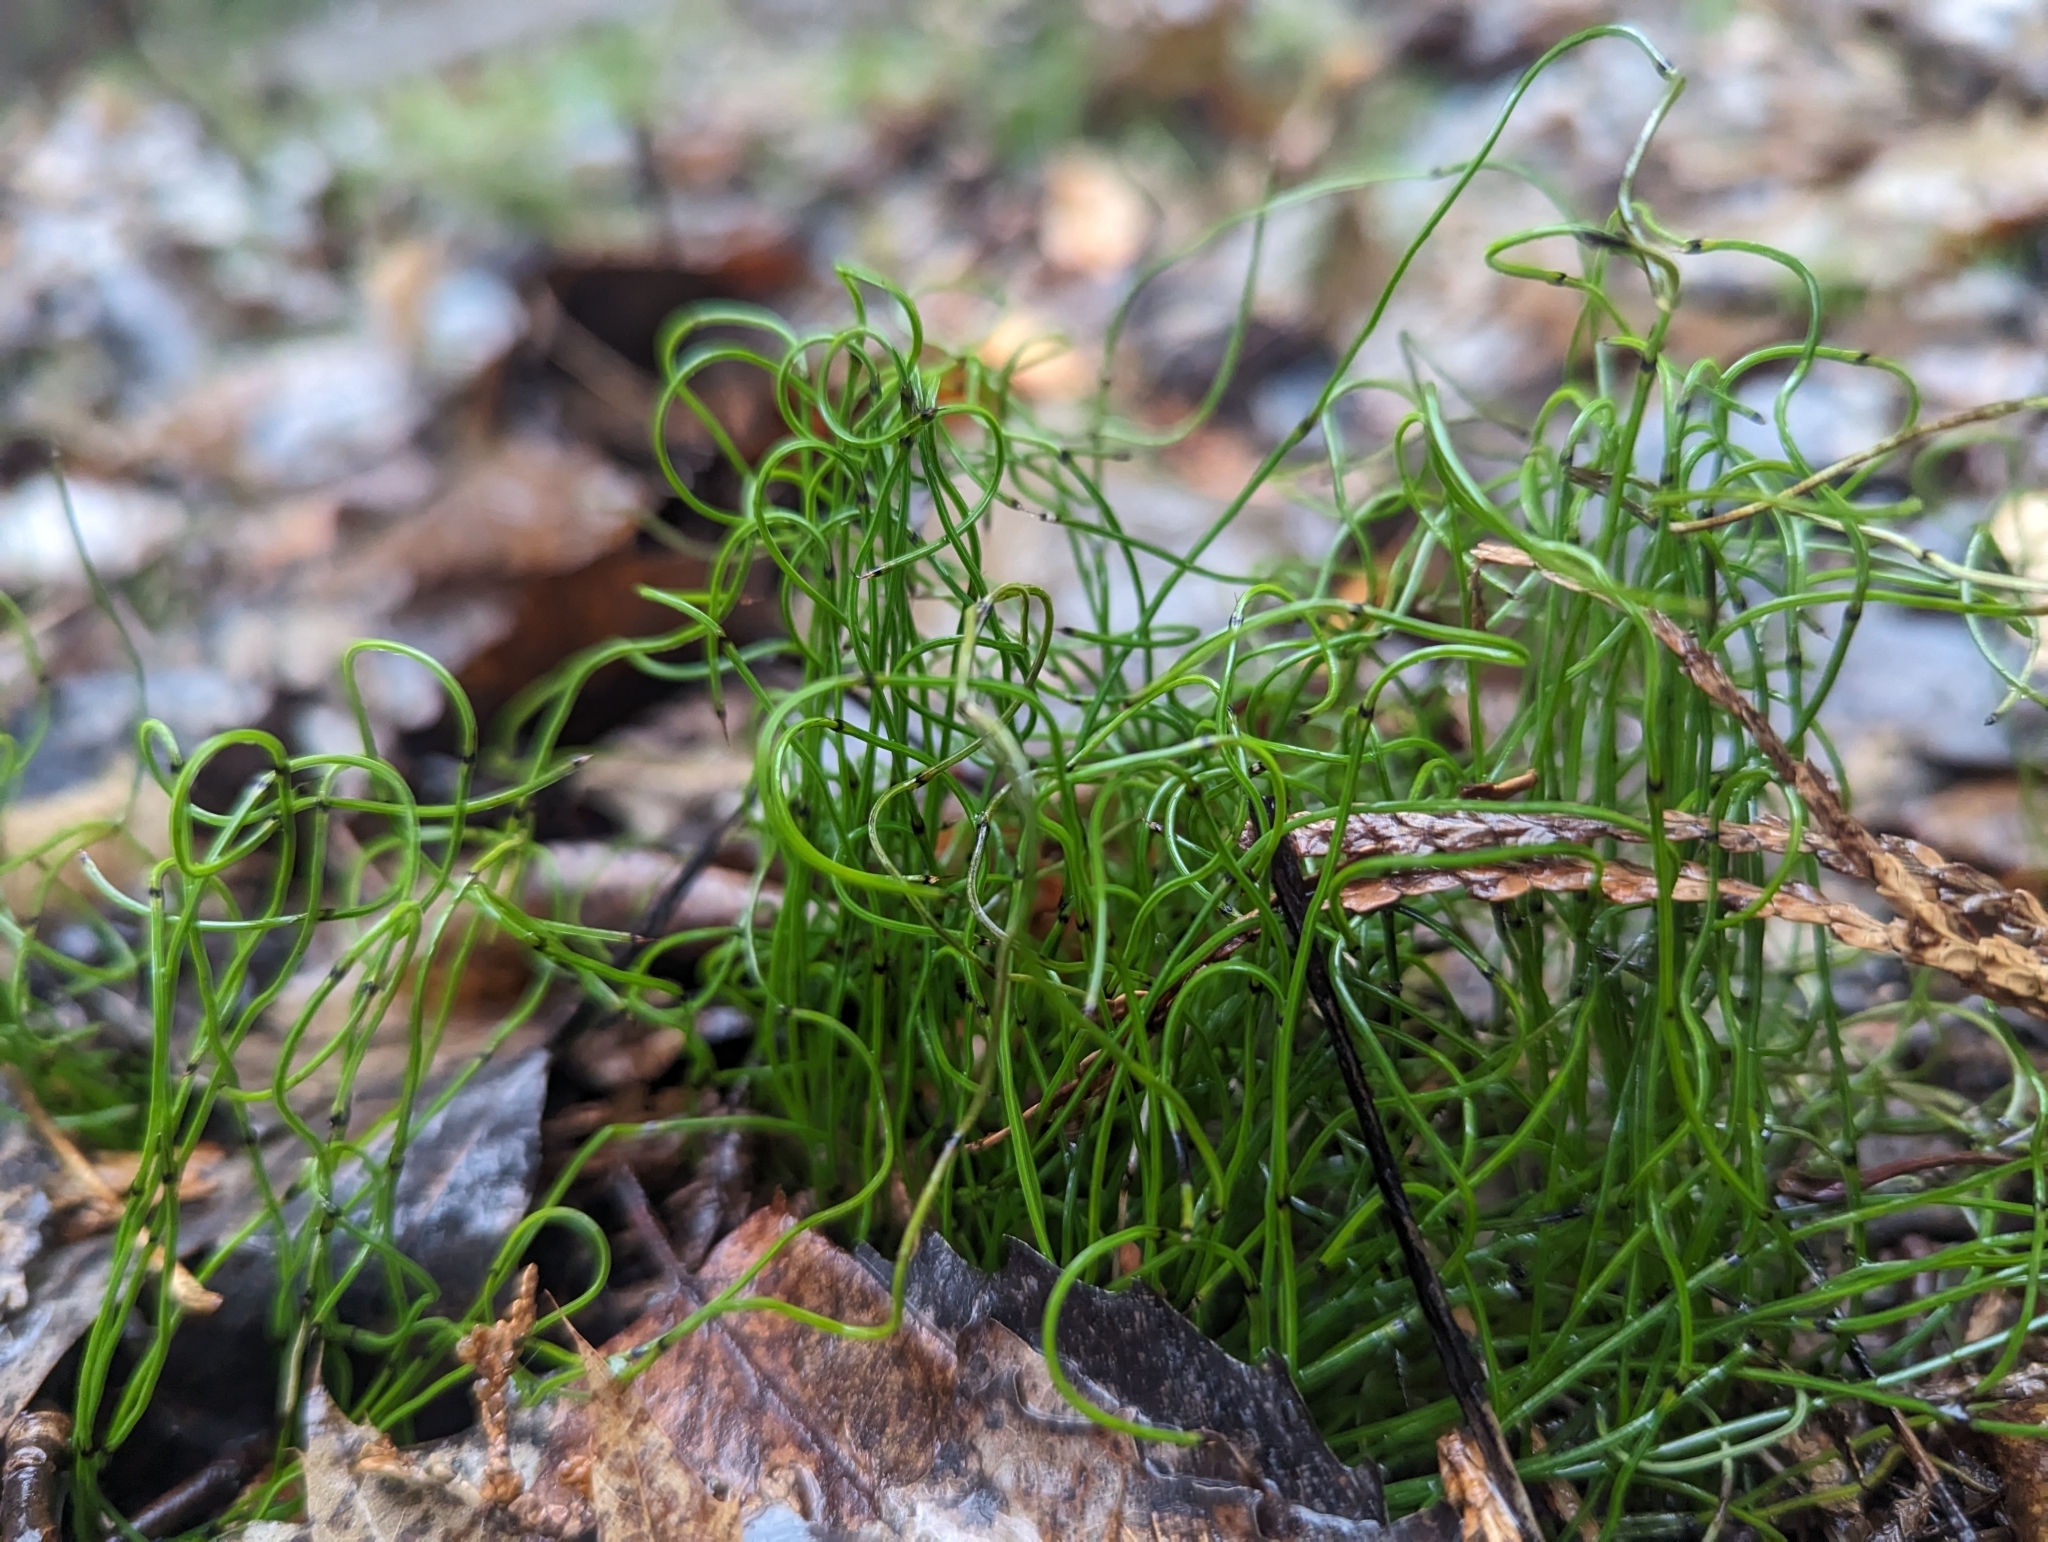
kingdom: Plantae
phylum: Tracheophyta
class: Polypodiopsida
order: Equisetales
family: Equisetaceae
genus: Equisetum
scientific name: Equisetum scirpoides
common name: Delicate horsetail
